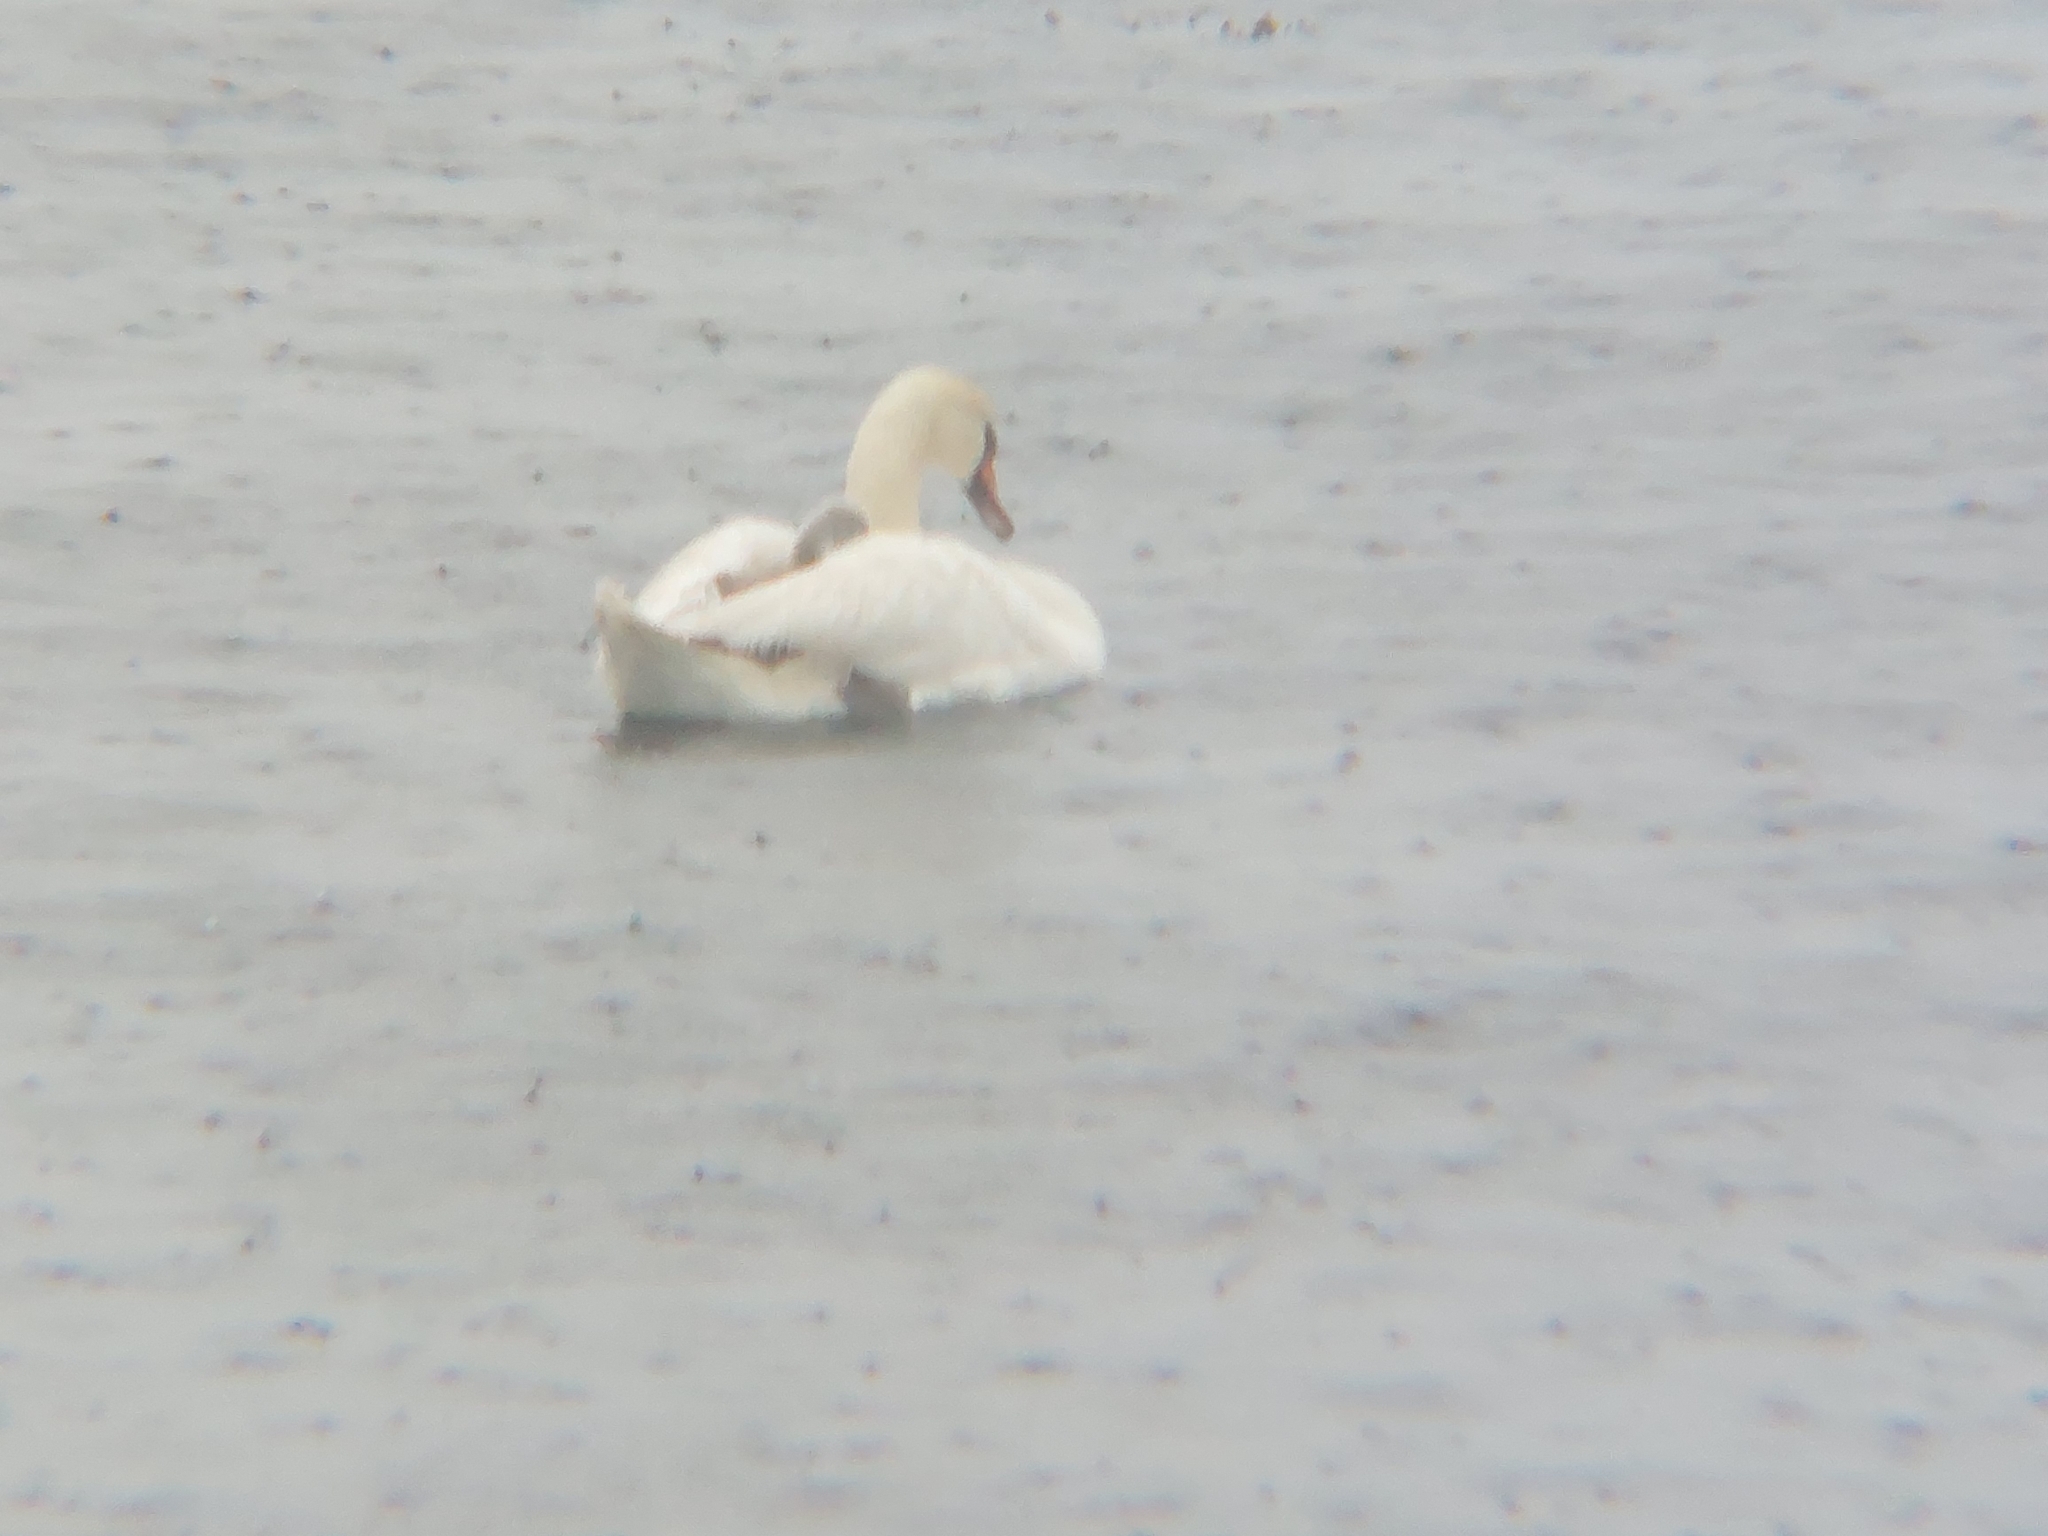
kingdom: Animalia
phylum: Chordata
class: Aves
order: Anseriformes
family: Anatidae
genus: Cygnus
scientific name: Cygnus olor
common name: Mute swan
